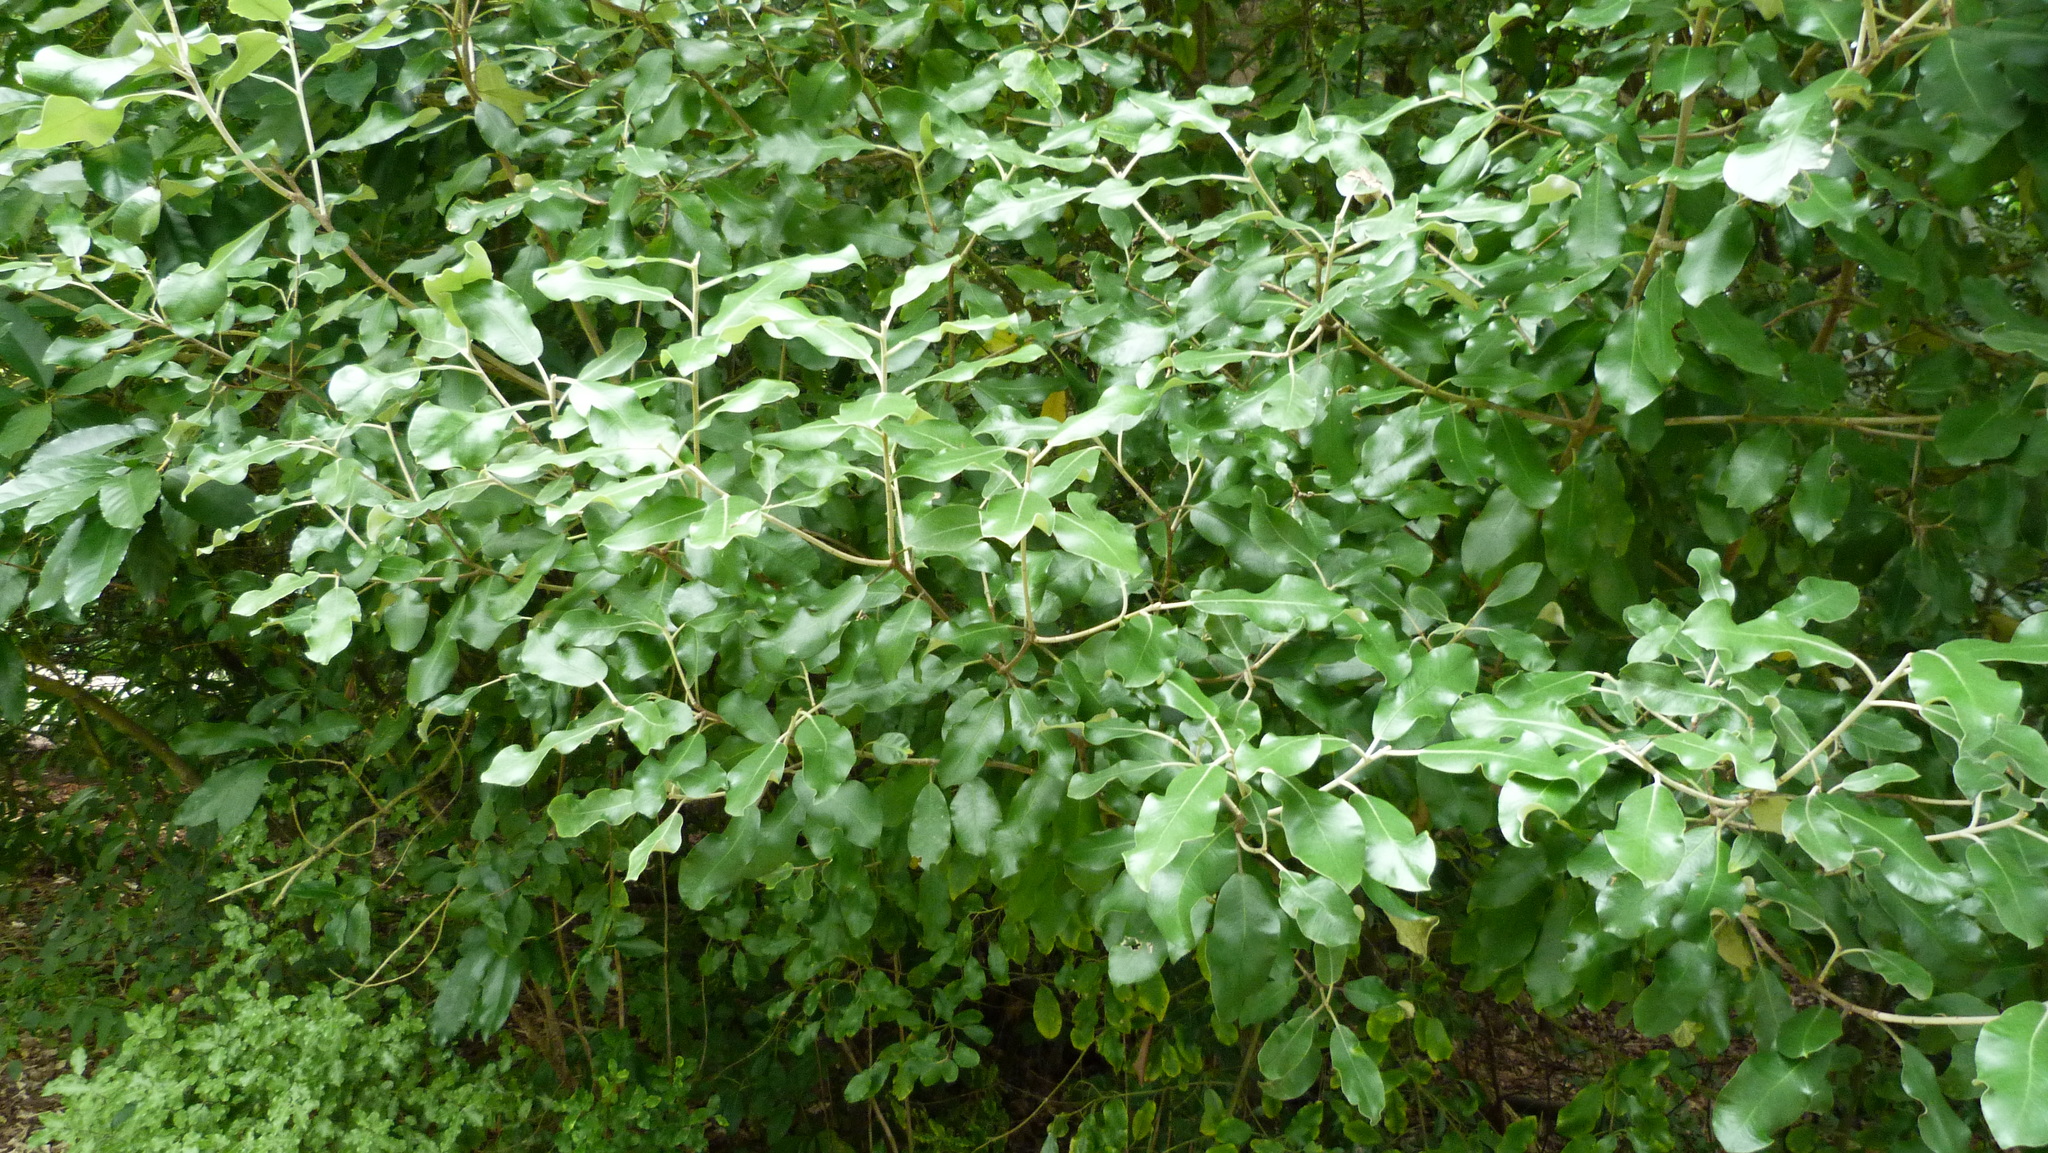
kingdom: Plantae
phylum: Tracheophyta
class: Magnoliopsida
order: Apiales
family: Pittosporaceae
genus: Pittosporum
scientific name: Pittosporum ralphii
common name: Ralph's desertwillow
